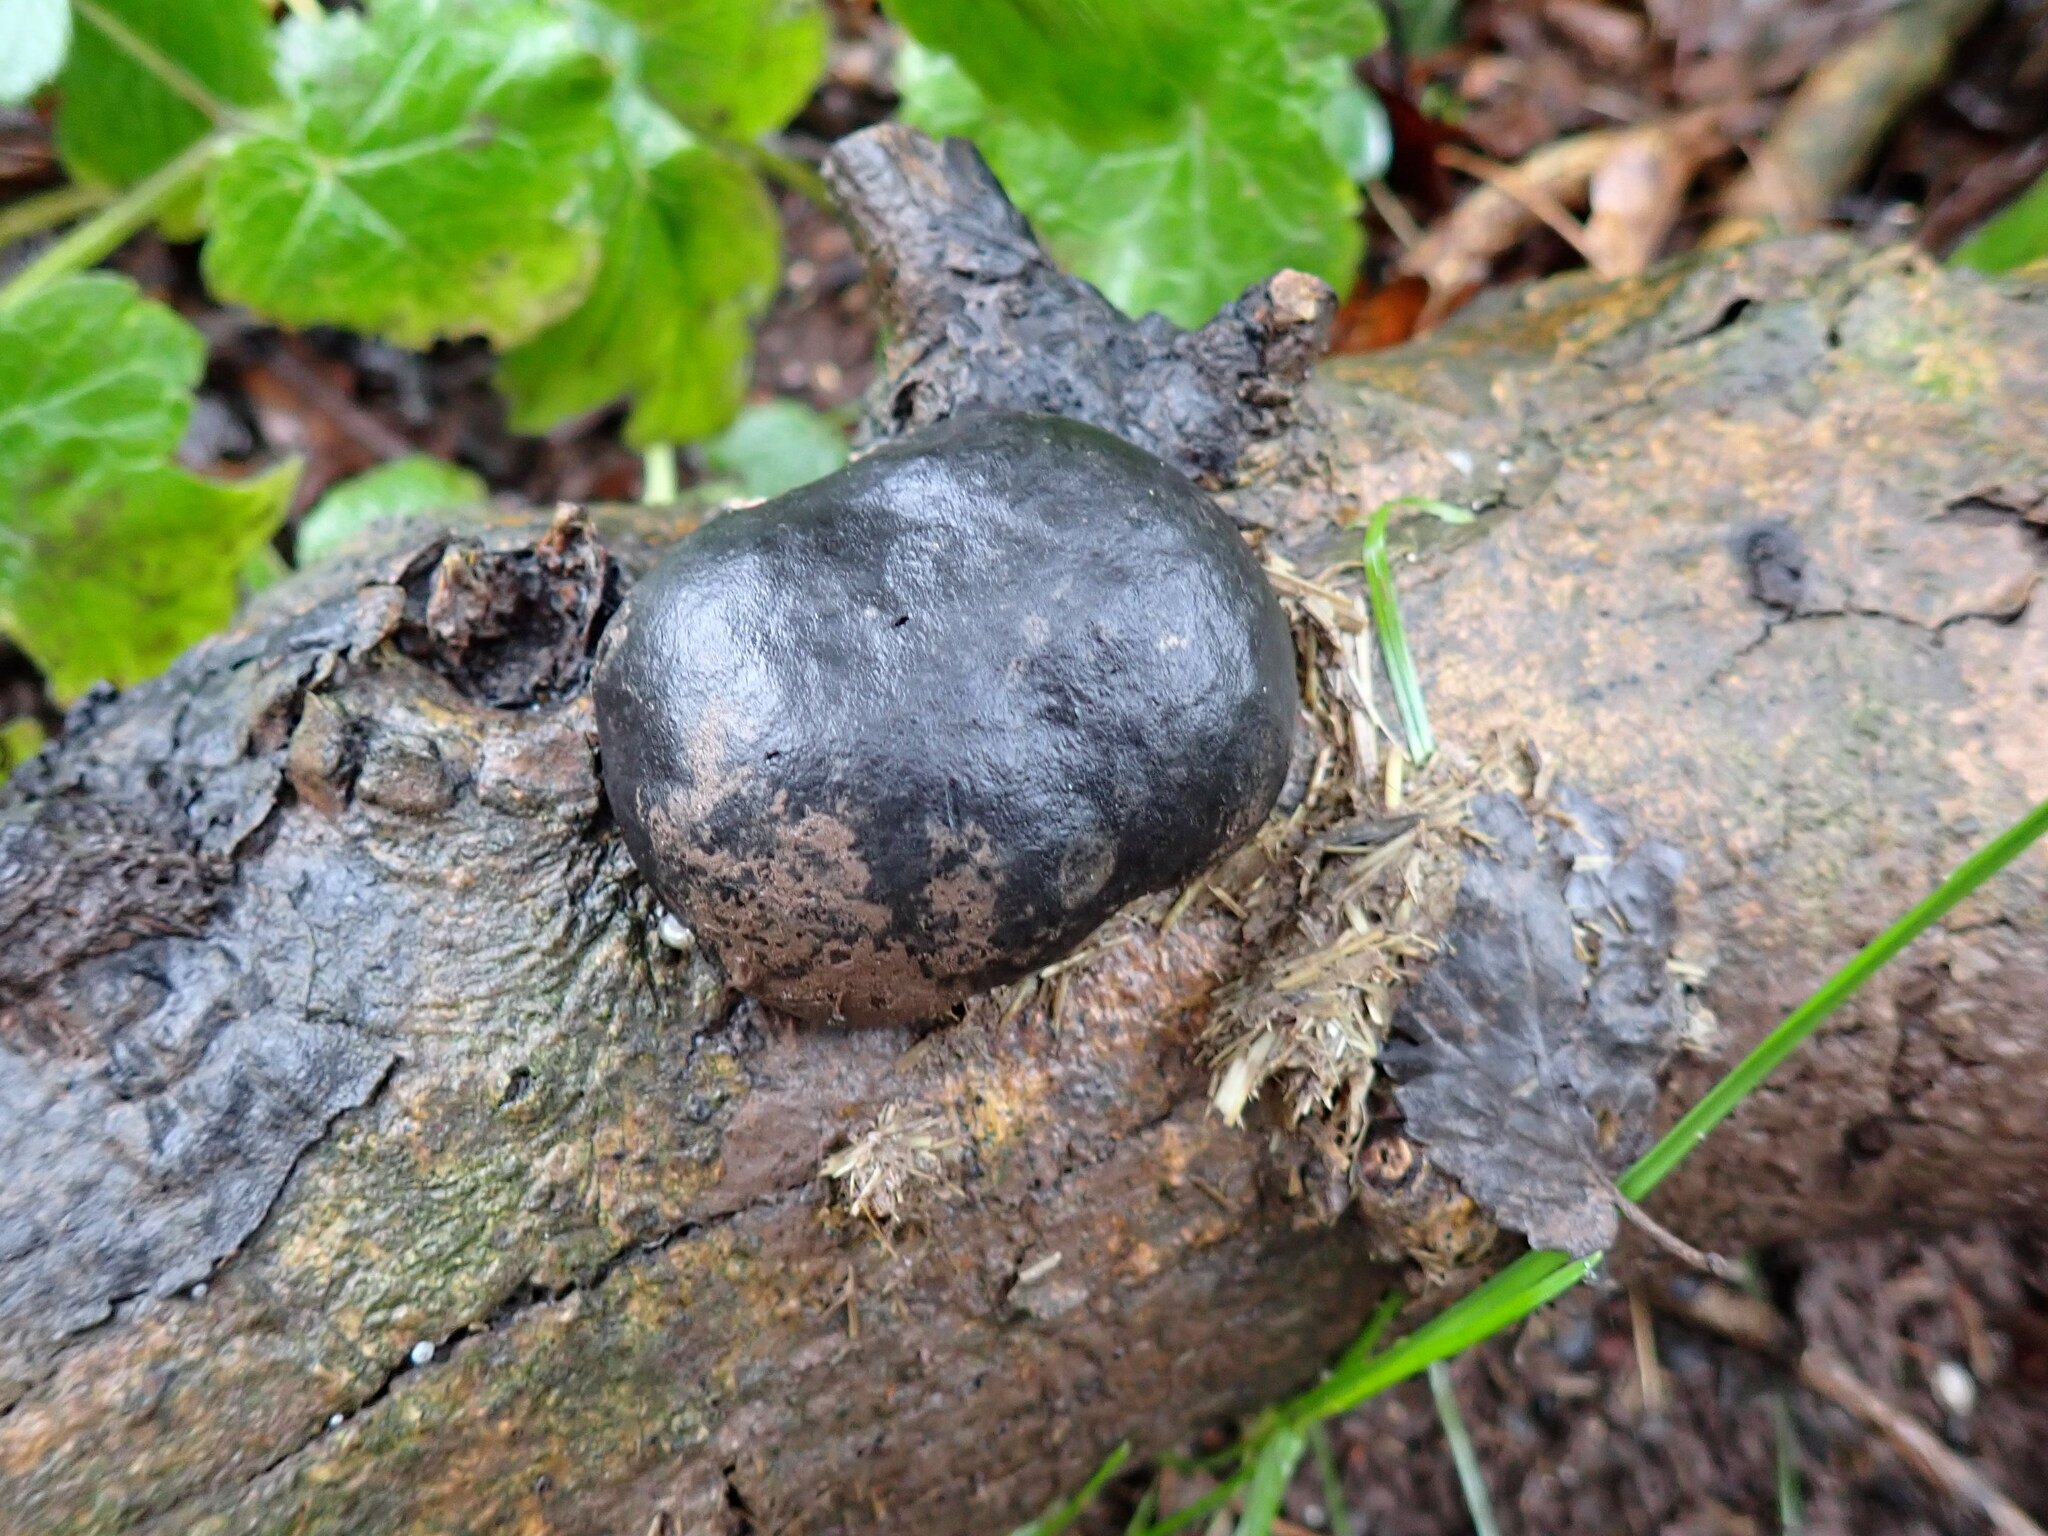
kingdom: Fungi
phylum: Ascomycota
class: Sordariomycetes
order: Xylariales
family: Hypoxylaceae
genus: Daldinia
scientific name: Daldinia concentrica
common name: Cramp balls
